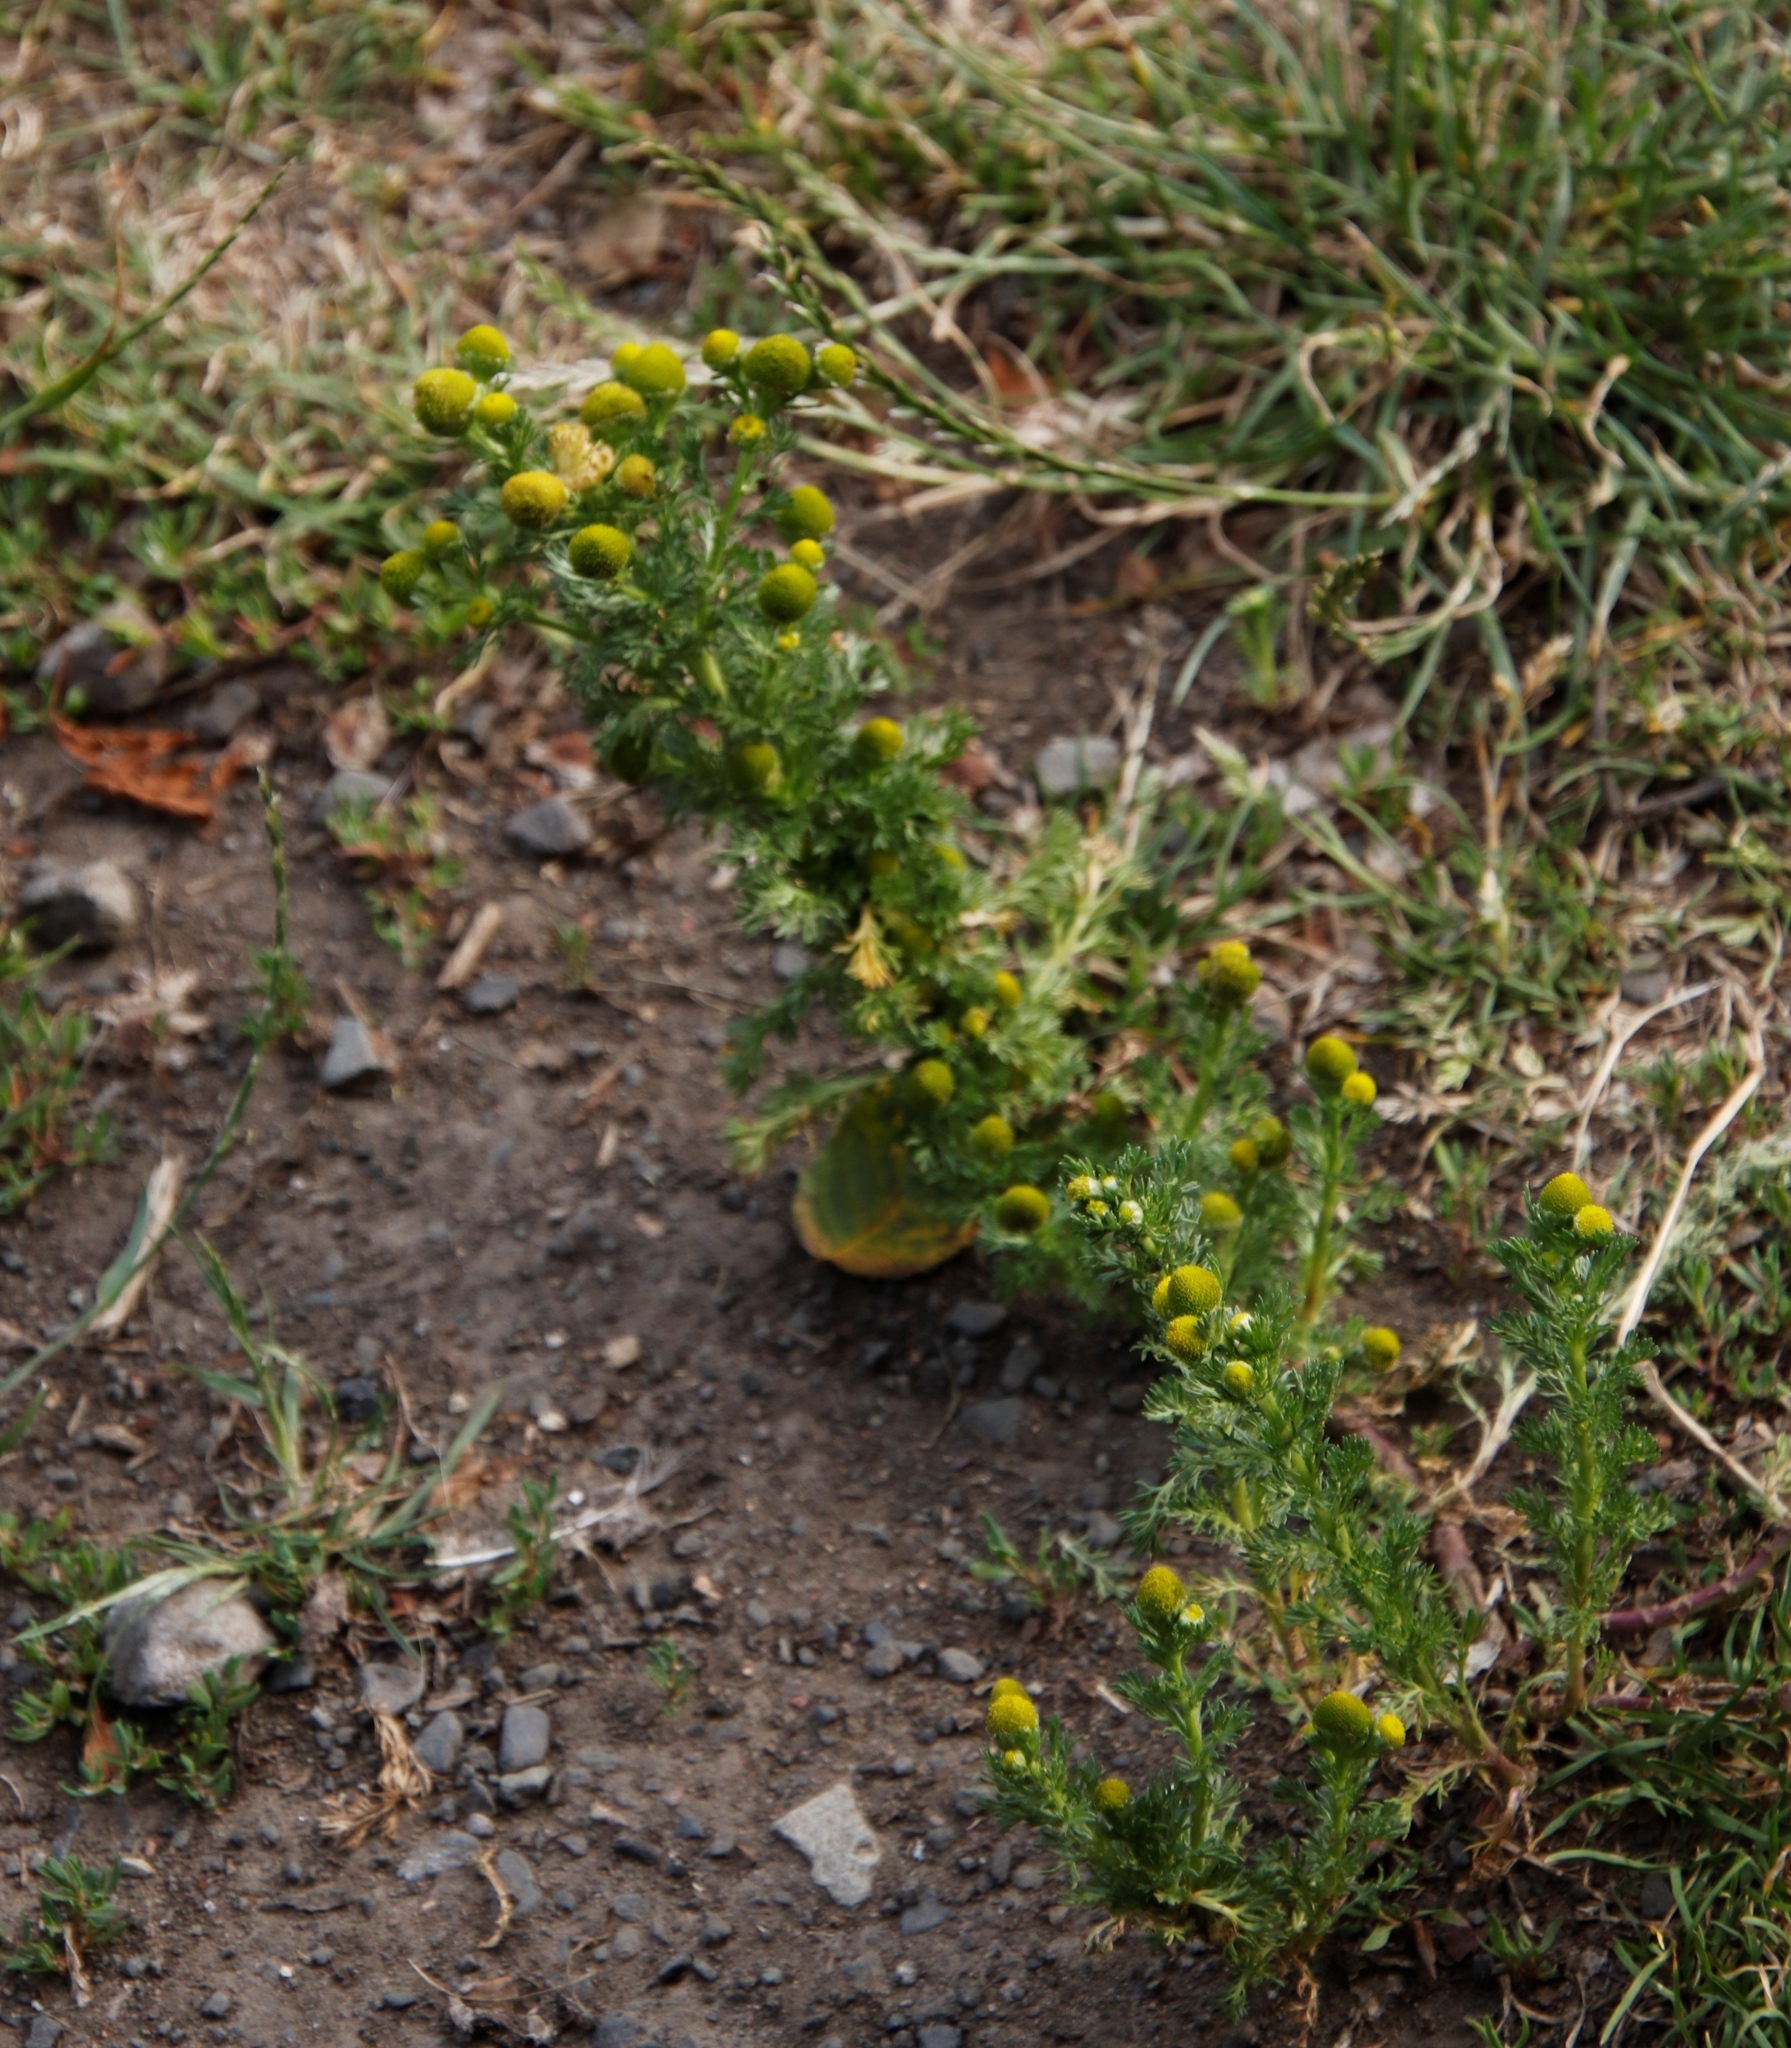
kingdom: Plantae
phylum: Tracheophyta
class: Magnoliopsida
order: Asterales
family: Asteraceae
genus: Matricaria
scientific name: Matricaria discoidea
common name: Disc mayweed
